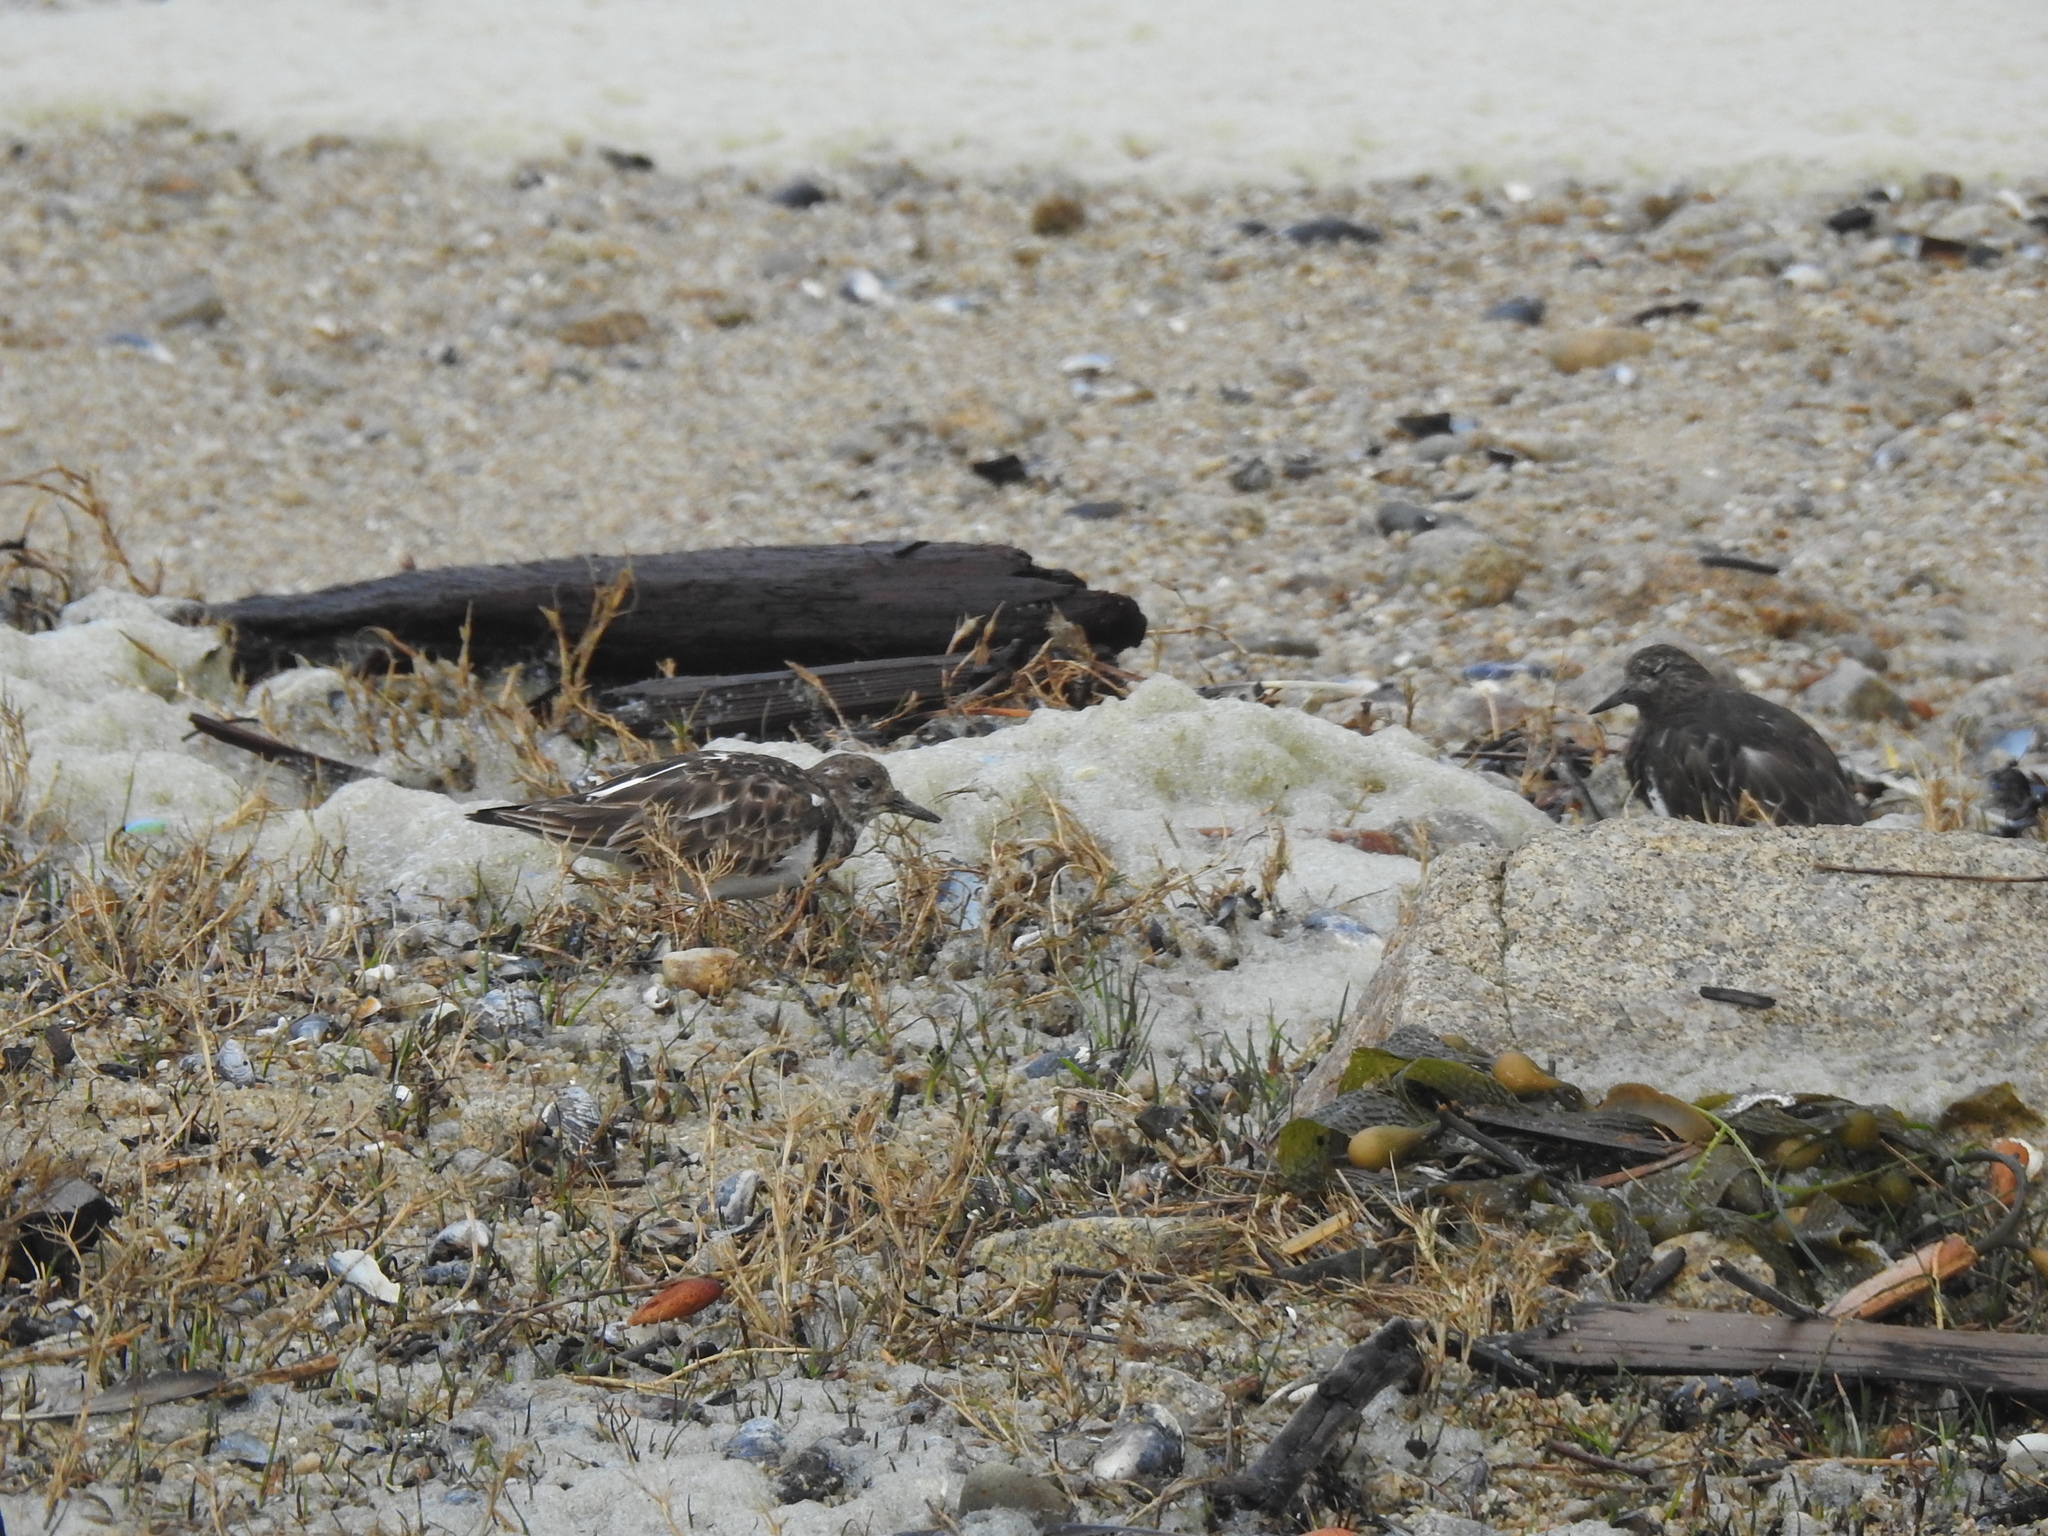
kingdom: Animalia
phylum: Chordata
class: Aves
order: Charadriiformes
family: Scolopacidae
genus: Arenaria
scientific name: Arenaria melanocephala
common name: Black turnstone
